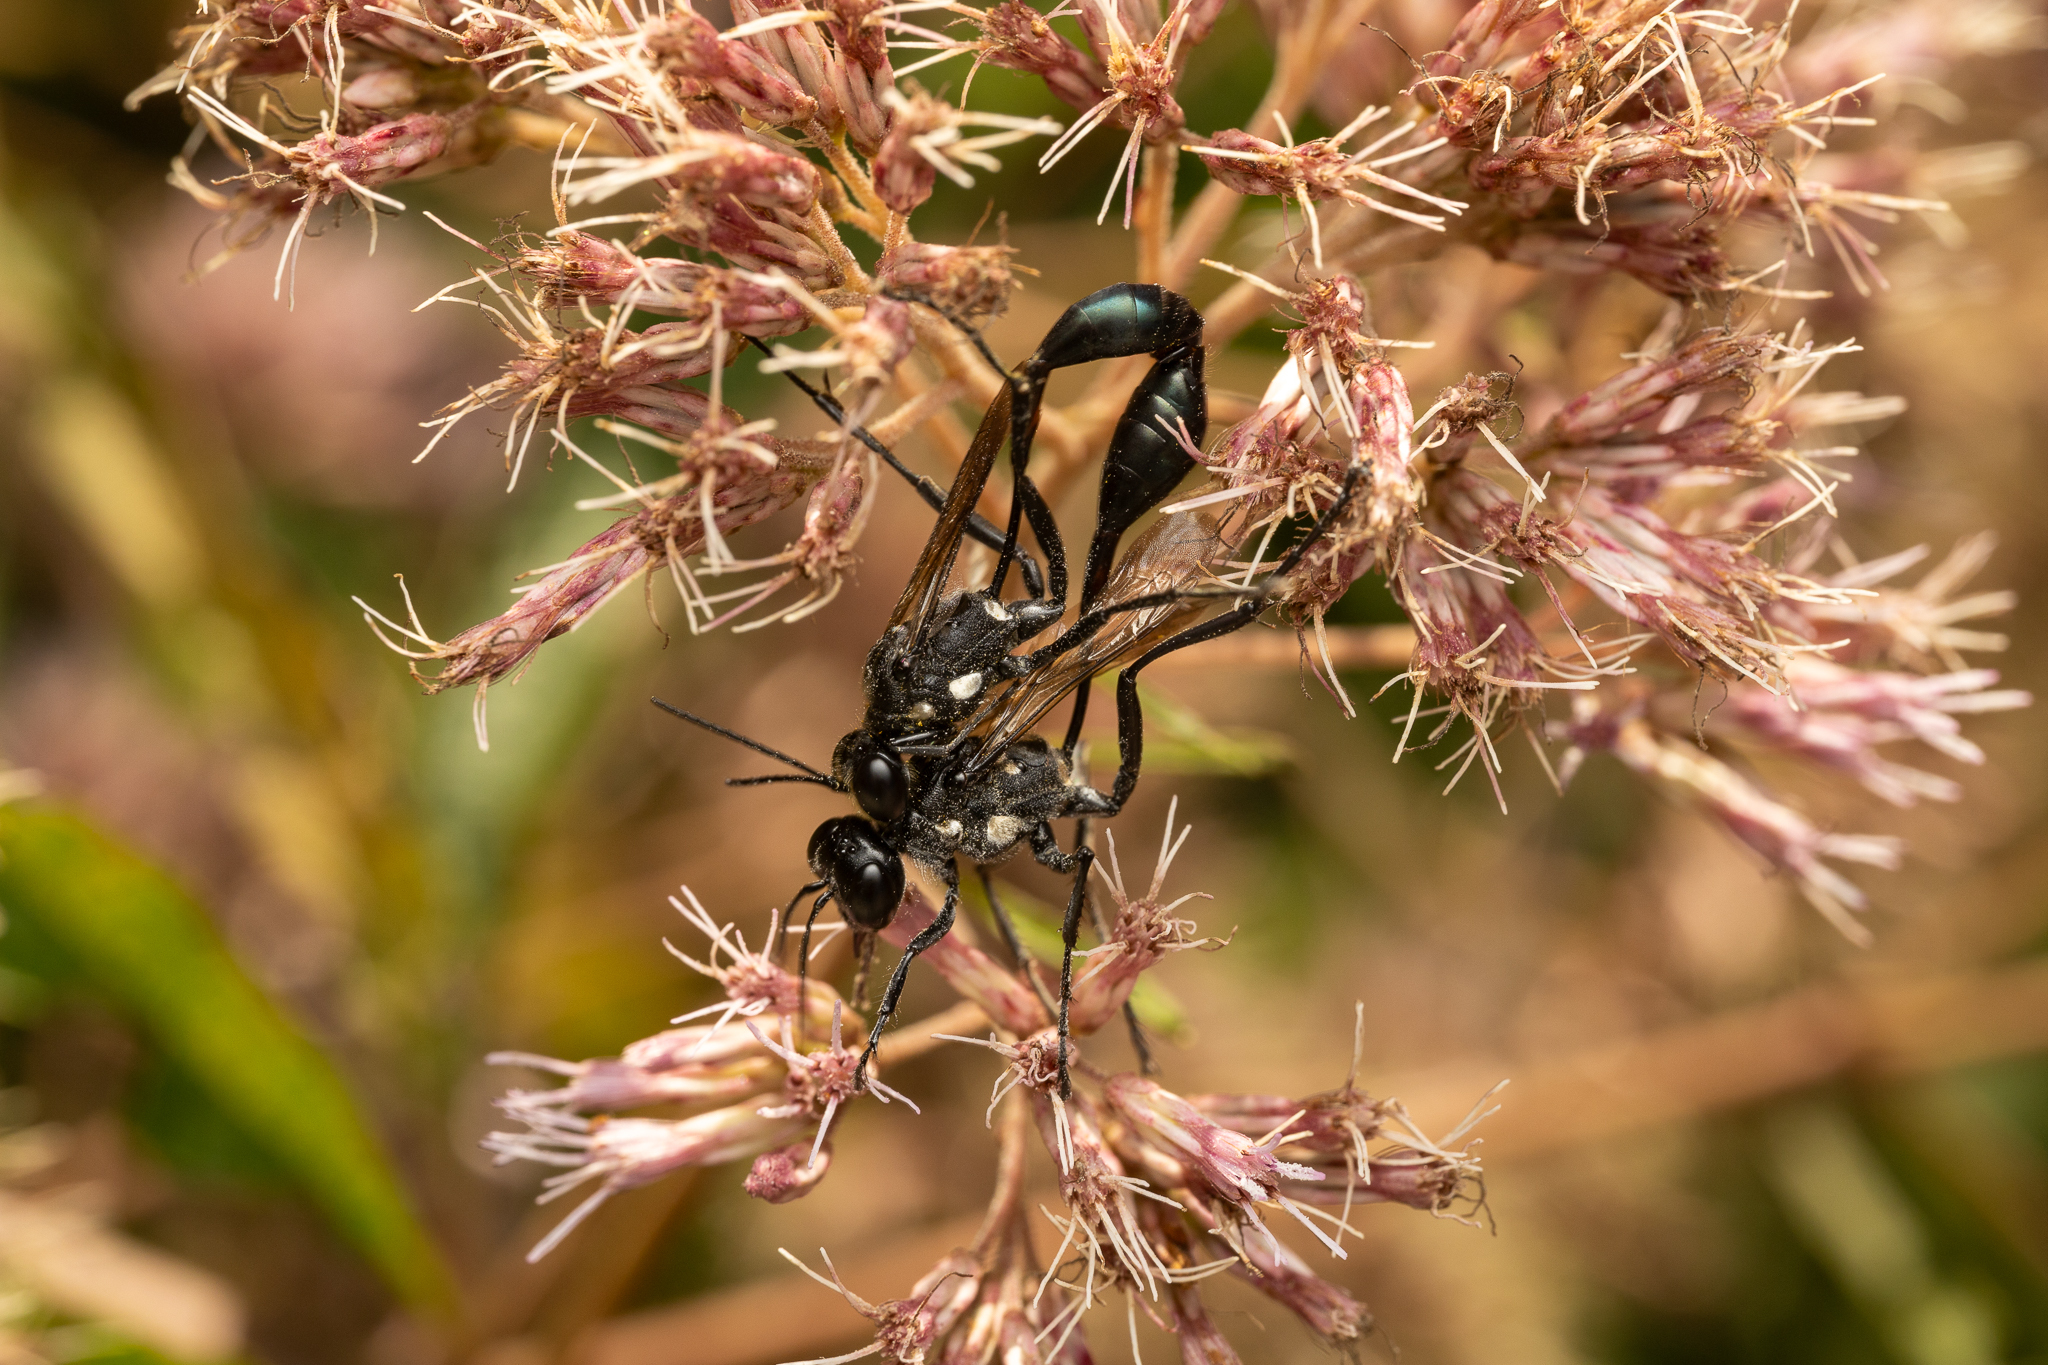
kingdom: Animalia
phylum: Arthropoda
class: Insecta
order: Hymenoptera
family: Sphecidae
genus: Eremnophila
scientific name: Eremnophila aureonotata
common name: Gold-marked thread-waisted wasp
